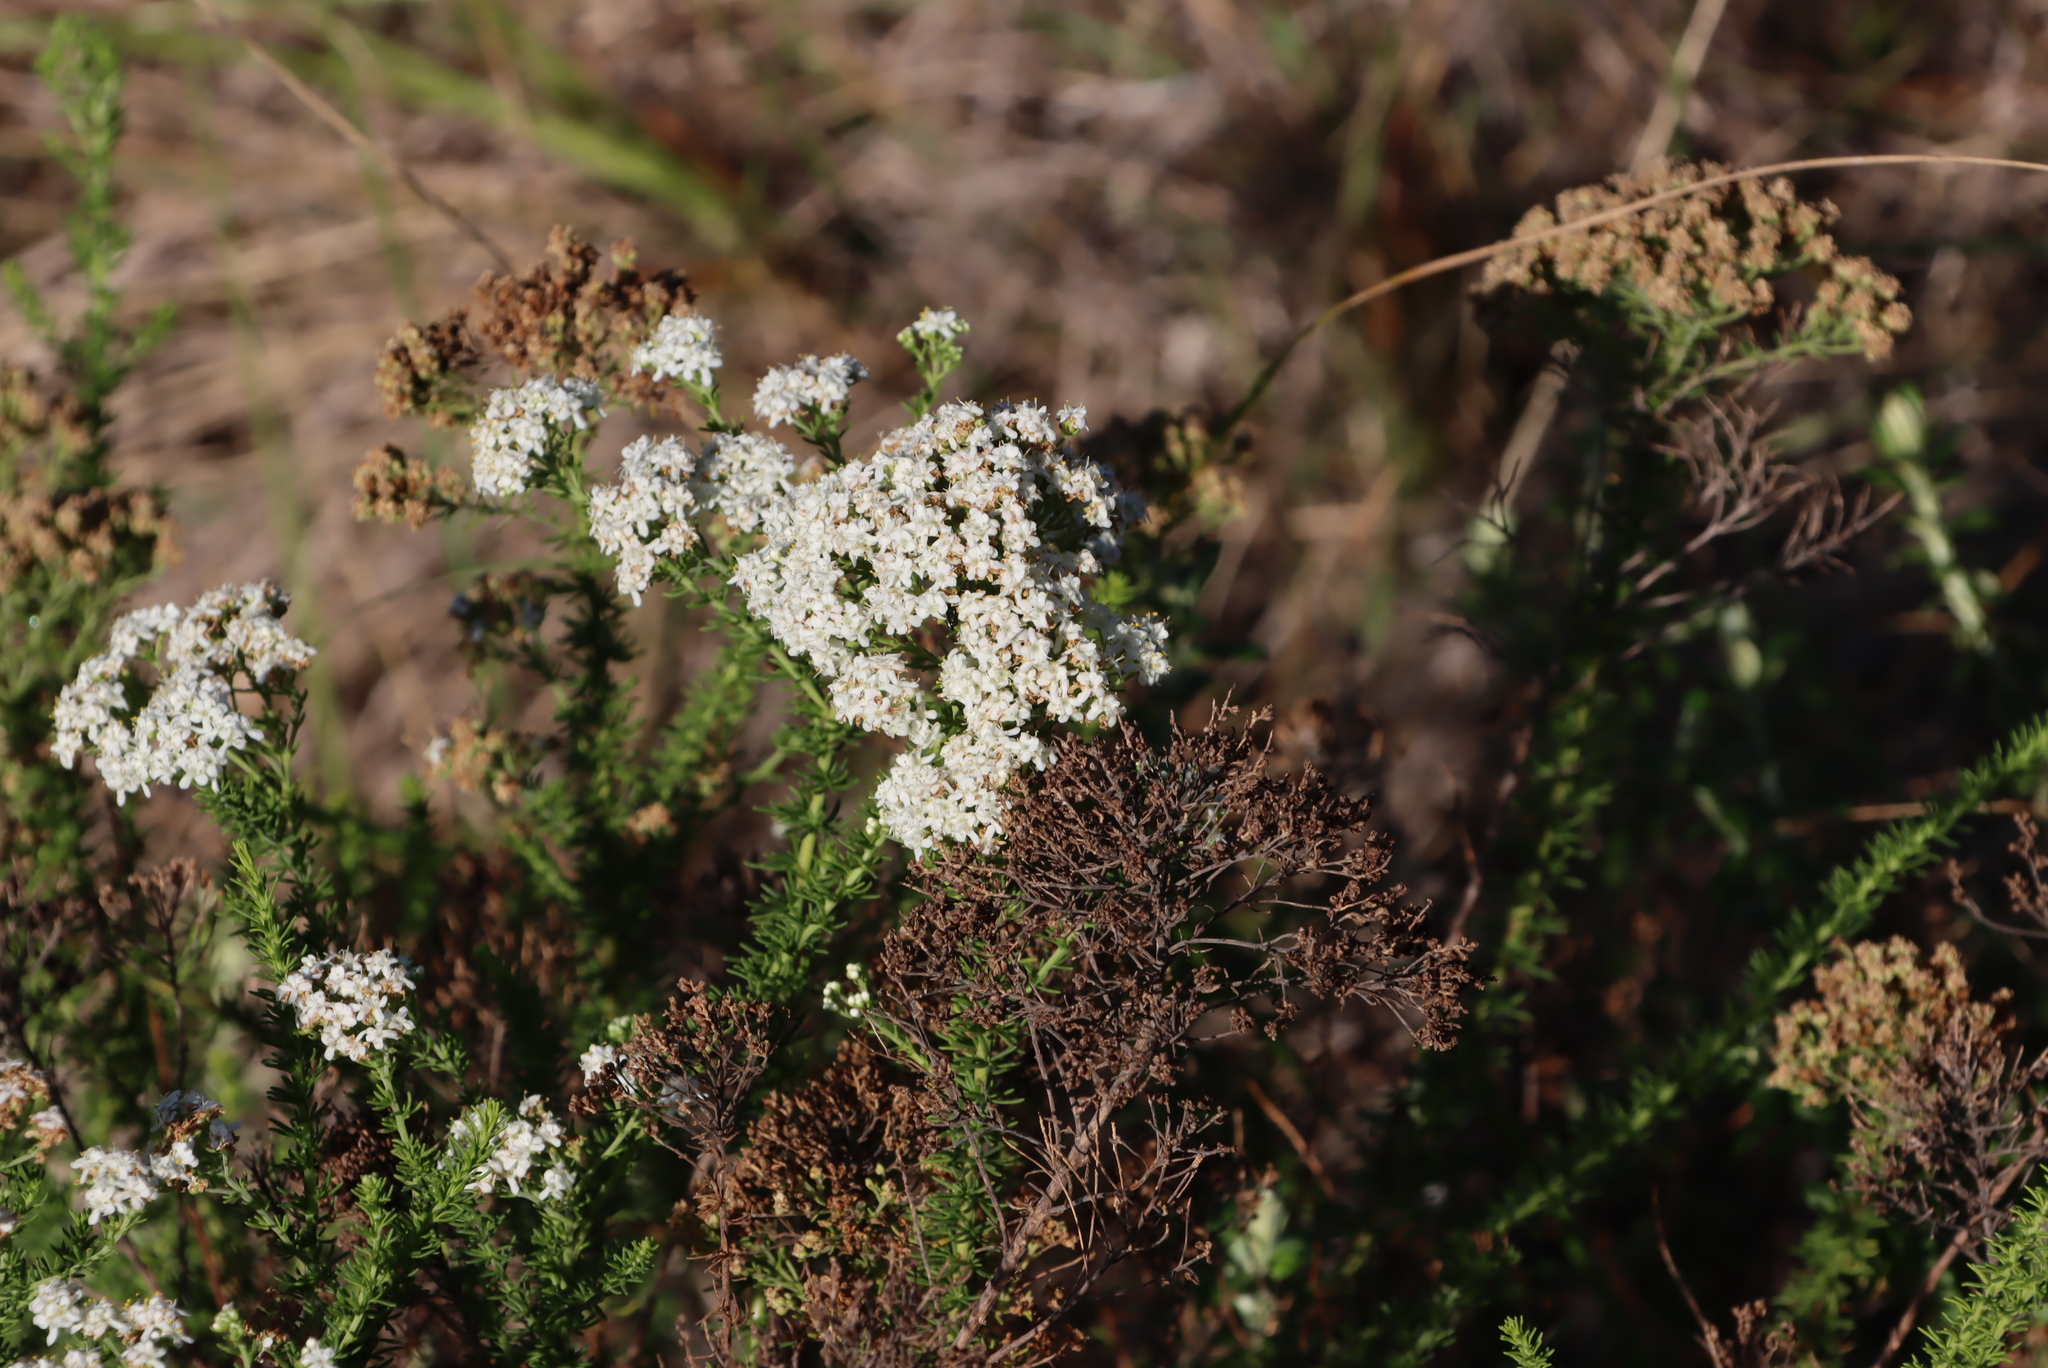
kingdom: Plantae
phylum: Tracheophyta
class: Magnoliopsida
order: Lamiales
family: Scrophulariaceae
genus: Selago
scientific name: Selago corymbosa
